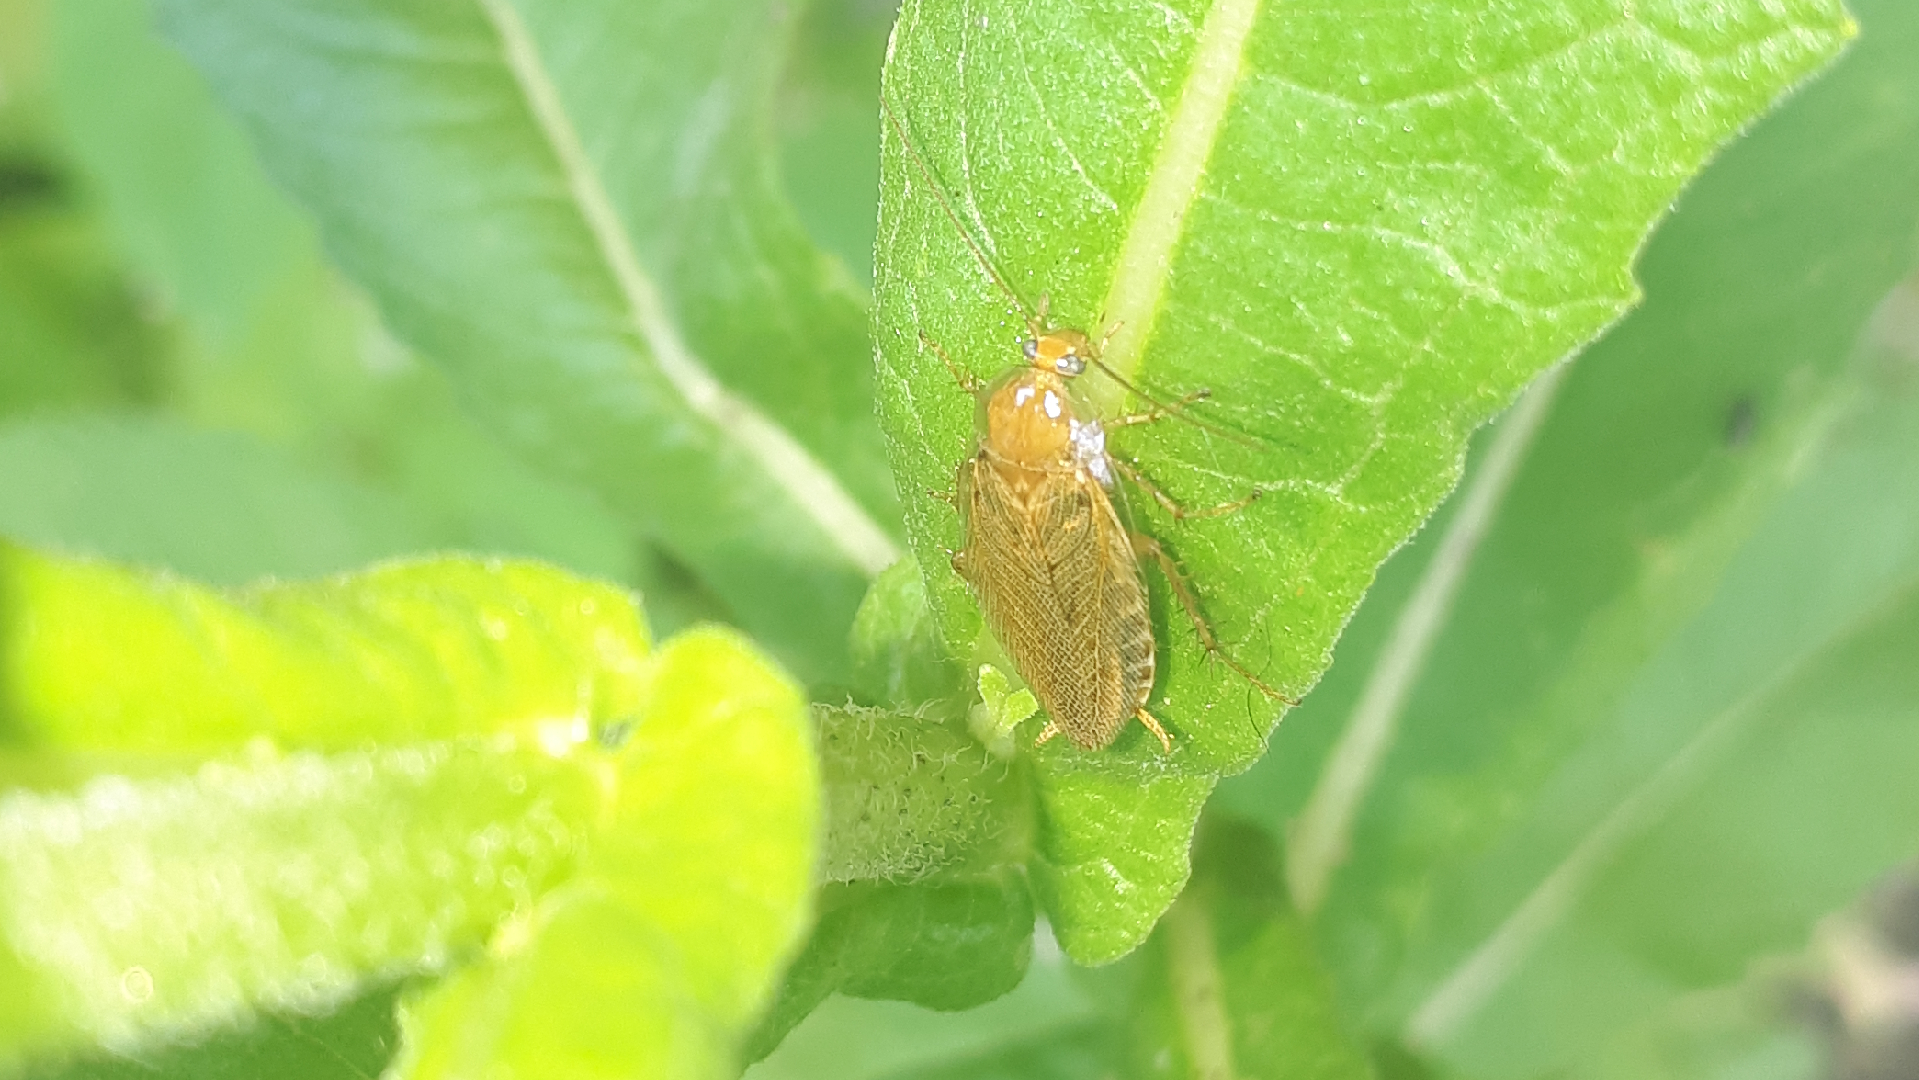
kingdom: Animalia
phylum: Arthropoda
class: Insecta
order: Blattodea
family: Ectobiidae
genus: Ectobius
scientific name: Ectobius vittiventris
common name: Garden cockroach
